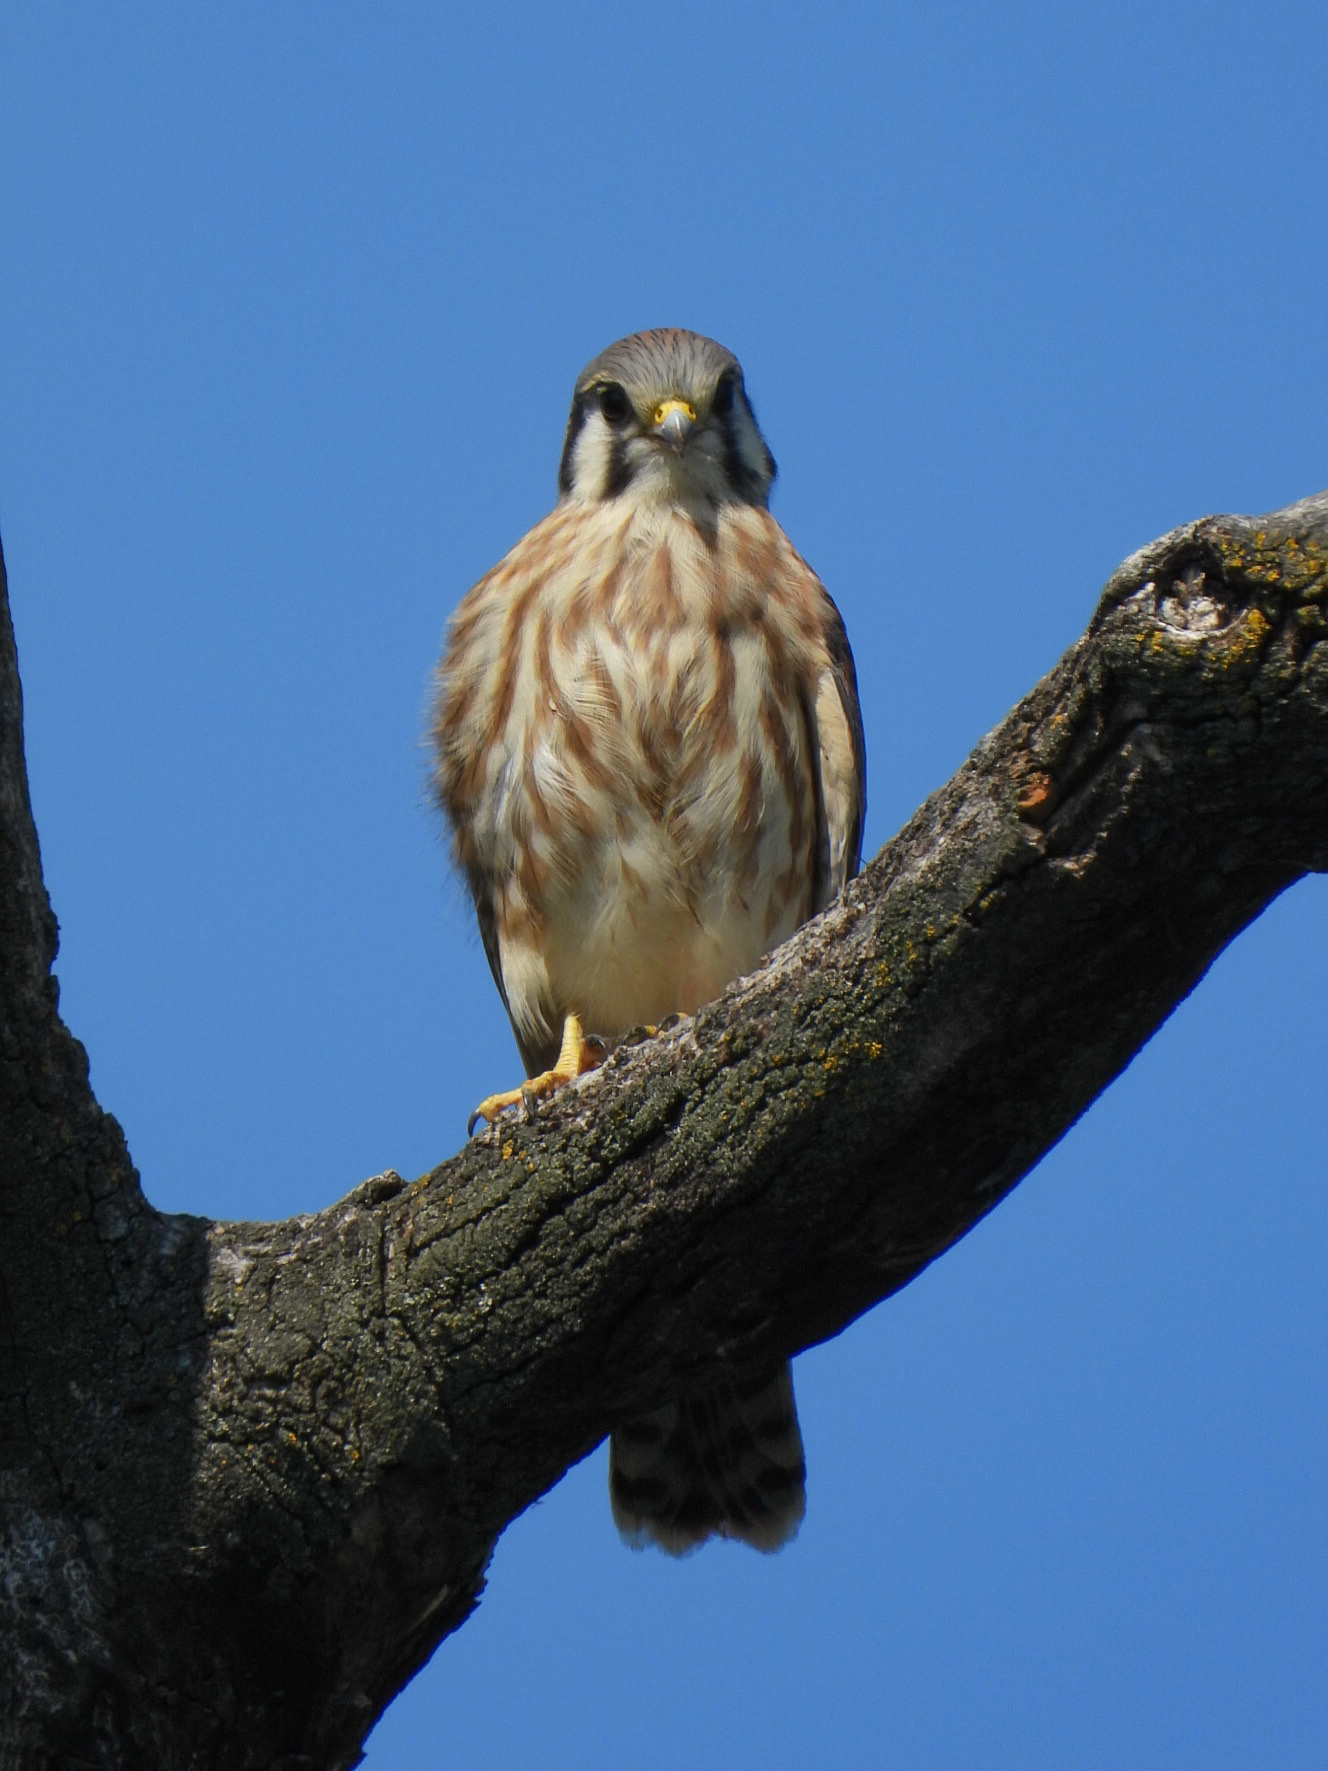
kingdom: Animalia
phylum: Chordata
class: Aves
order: Falconiformes
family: Falconidae
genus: Falco
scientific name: Falco sparverius
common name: American kestrel
